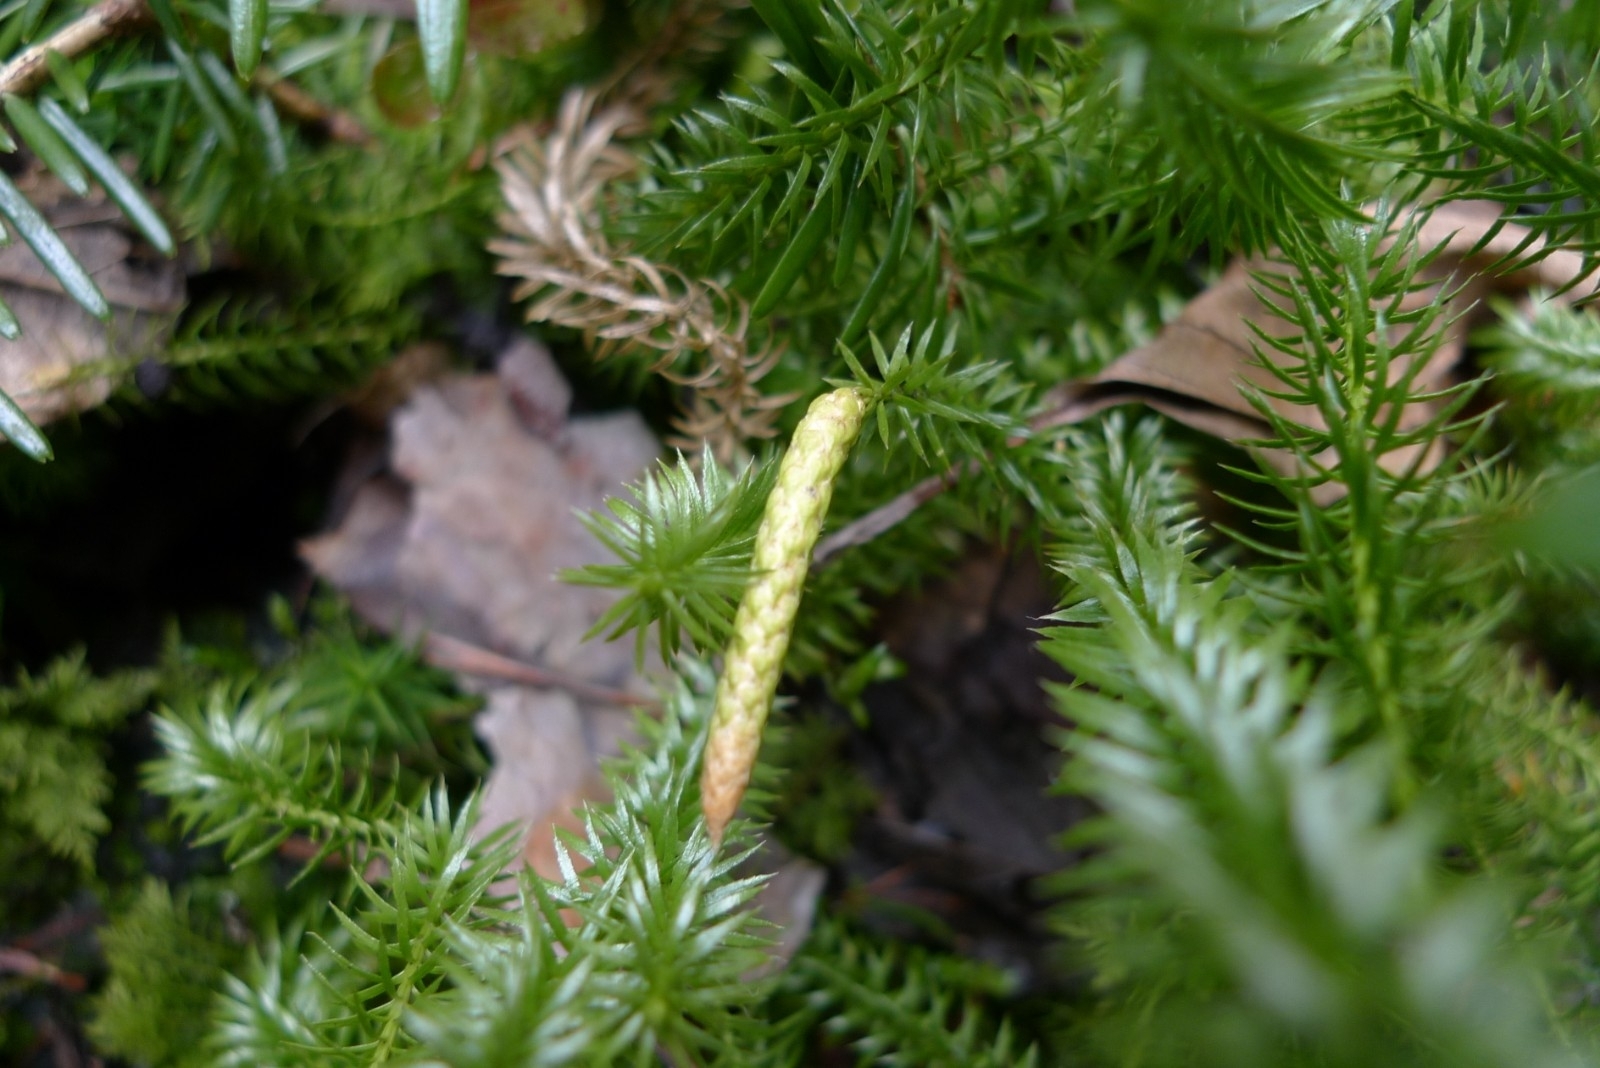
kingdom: Plantae
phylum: Tracheophyta
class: Lycopodiopsida
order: Lycopodiales
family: Lycopodiaceae
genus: Spinulum
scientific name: Spinulum annotinum
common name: Interrupted club-moss
